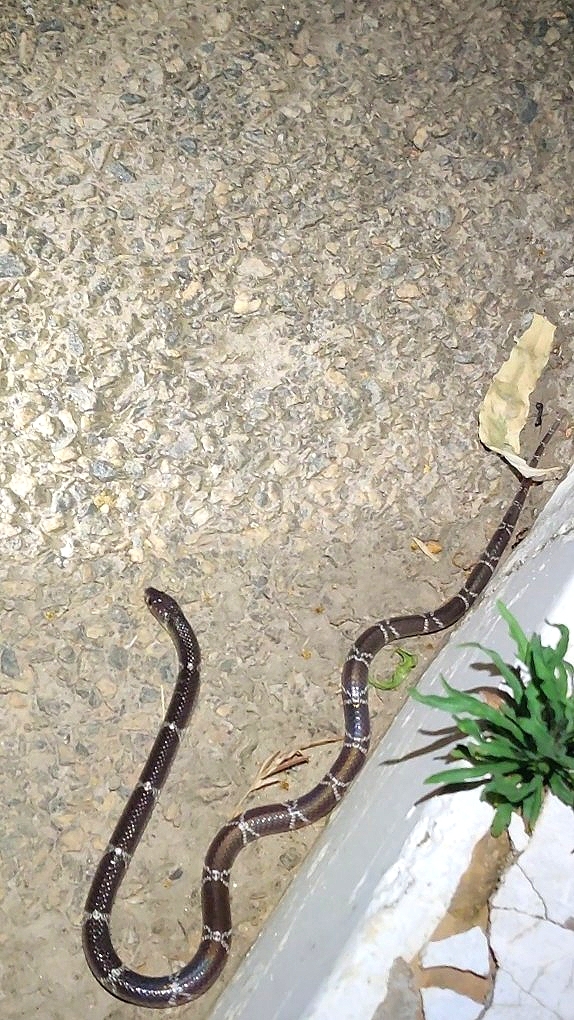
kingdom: Animalia
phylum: Chordata
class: Squamata
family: Elapidae
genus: Bungarus
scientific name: Bungarus caeruleus
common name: Common krait
